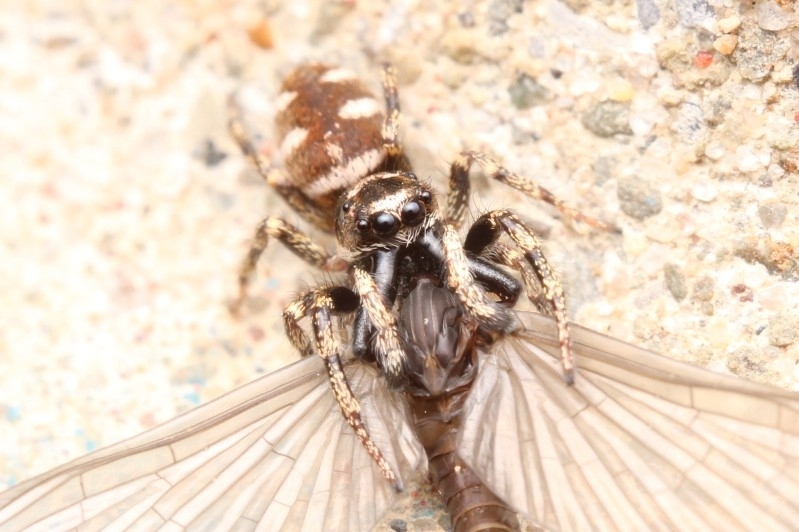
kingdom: Animalia
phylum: Arthropoda
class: Arachnida
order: Araneae
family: Salticidae
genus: Salticus
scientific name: Salticus scenicus
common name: Zebra jumper
